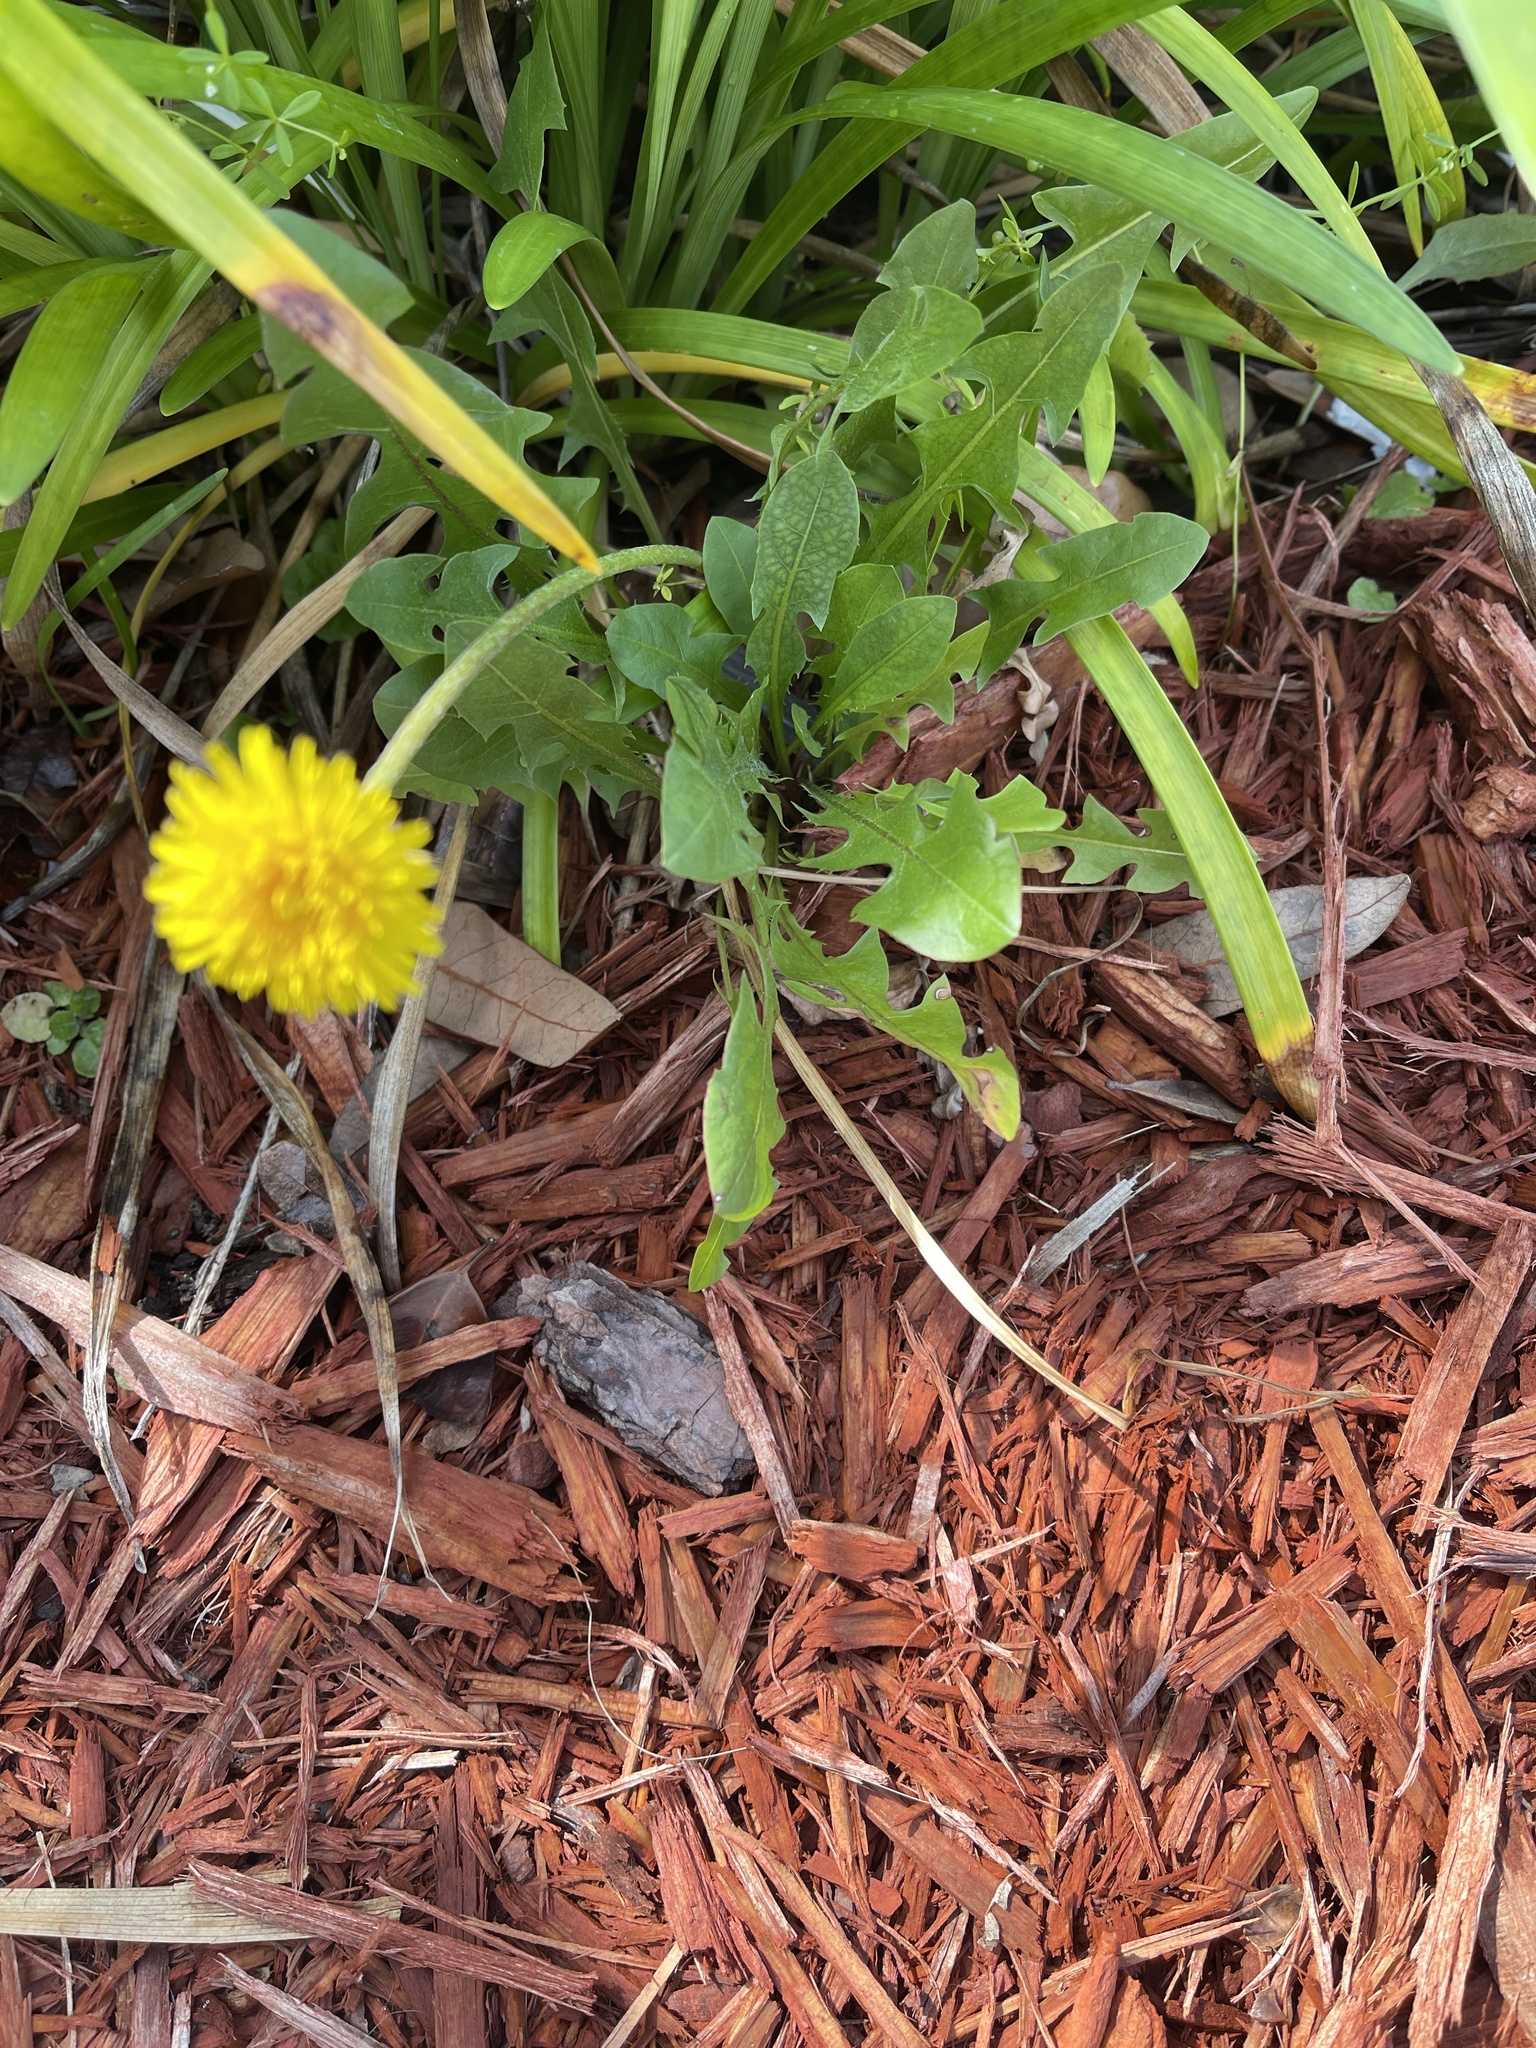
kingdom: Plantae
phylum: Tracheophyta
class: Magnoliopsida
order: Asterales
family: Asteraceae
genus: Taraxacum
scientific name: Taraxacum officinale
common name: Common dandelion
